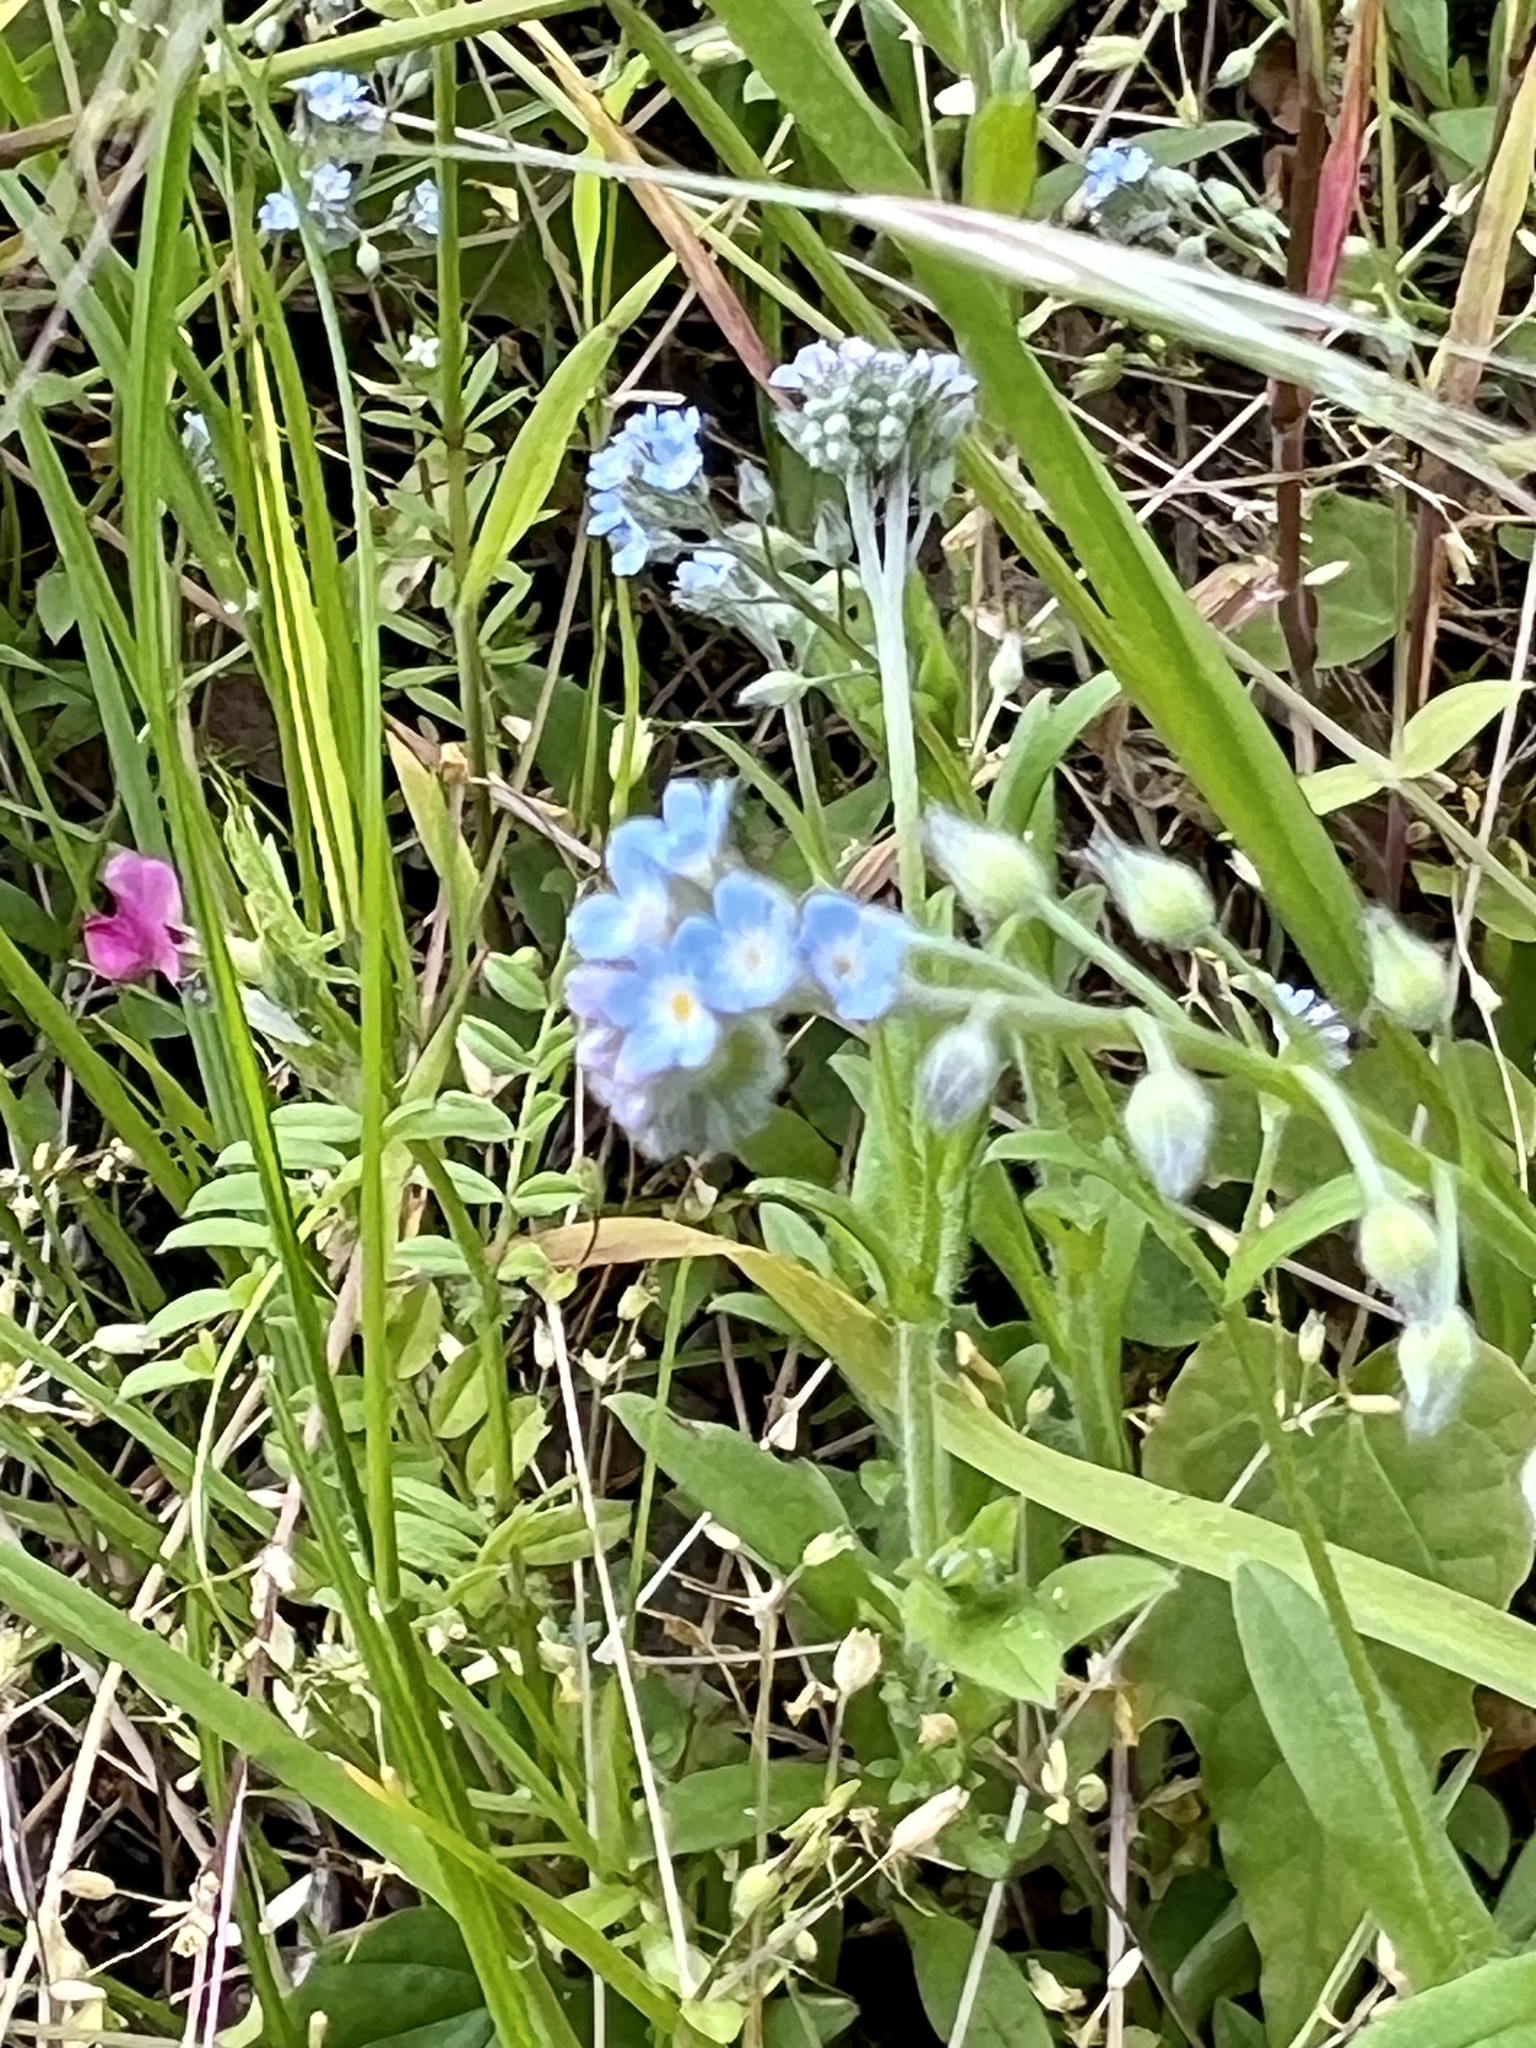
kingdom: Plantae
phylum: Tracheophyta
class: Magnoliopsida
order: Boraginales
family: Boraginaceae
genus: Myosotis
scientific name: Myosotis arvensis
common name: Field forget-me-not
